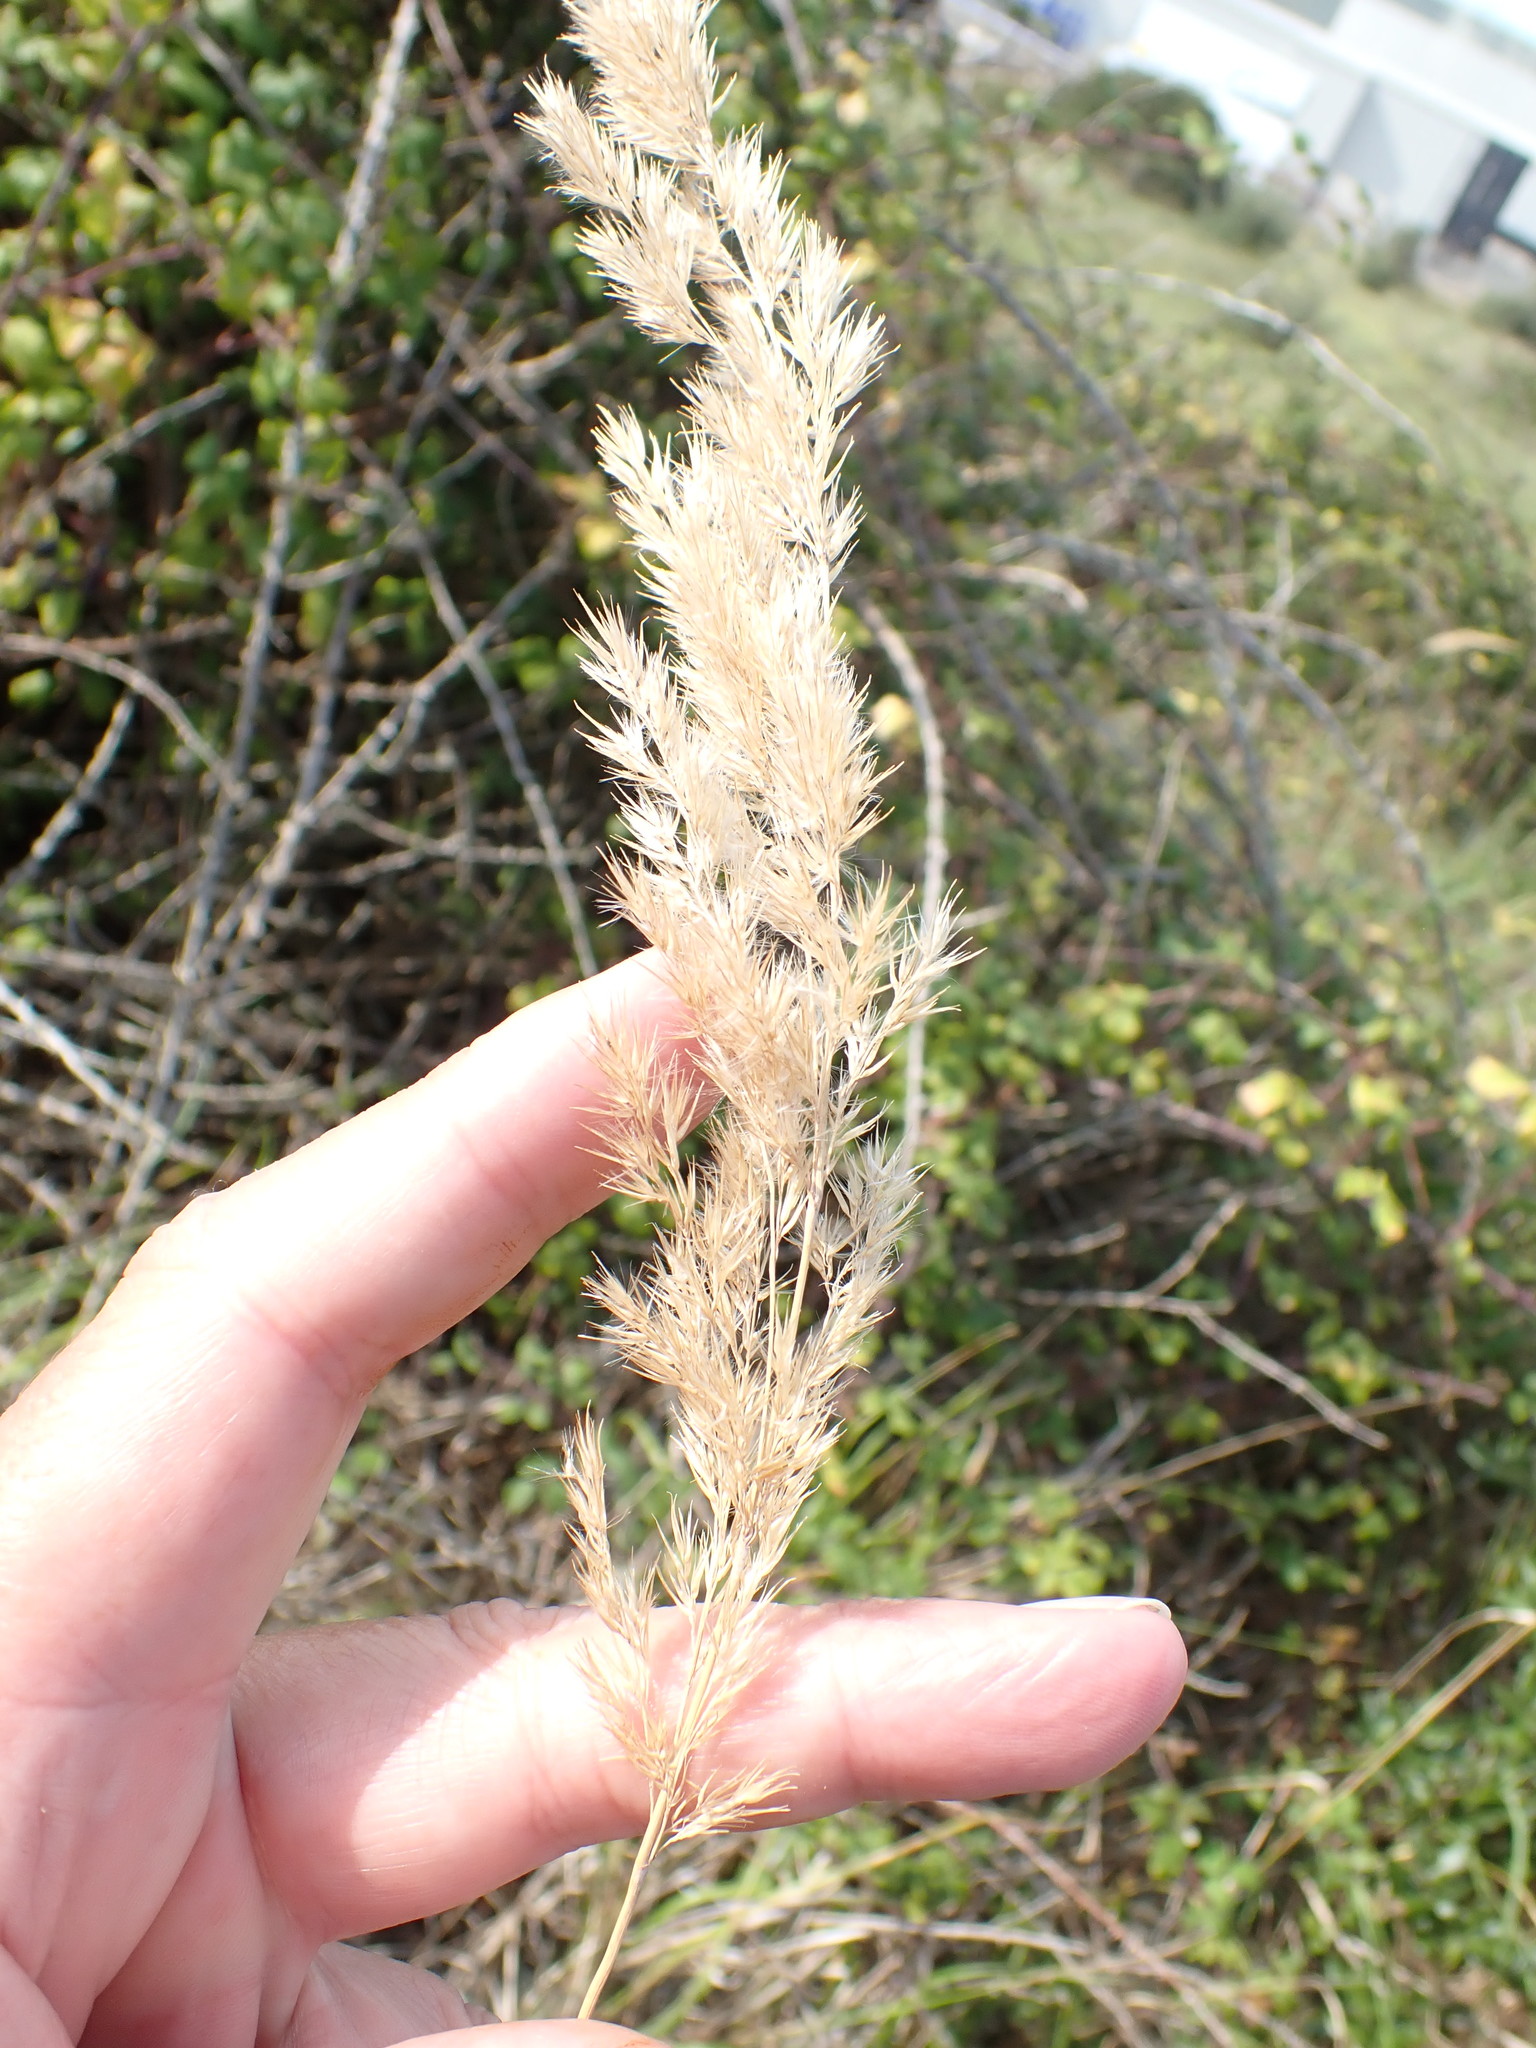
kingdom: Plantae
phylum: Tracheophyta
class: Liliopsida
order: Poales
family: Poaceae
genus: Calamagrostis
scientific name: Calamagrostis epigejos
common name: Wood small-reed
